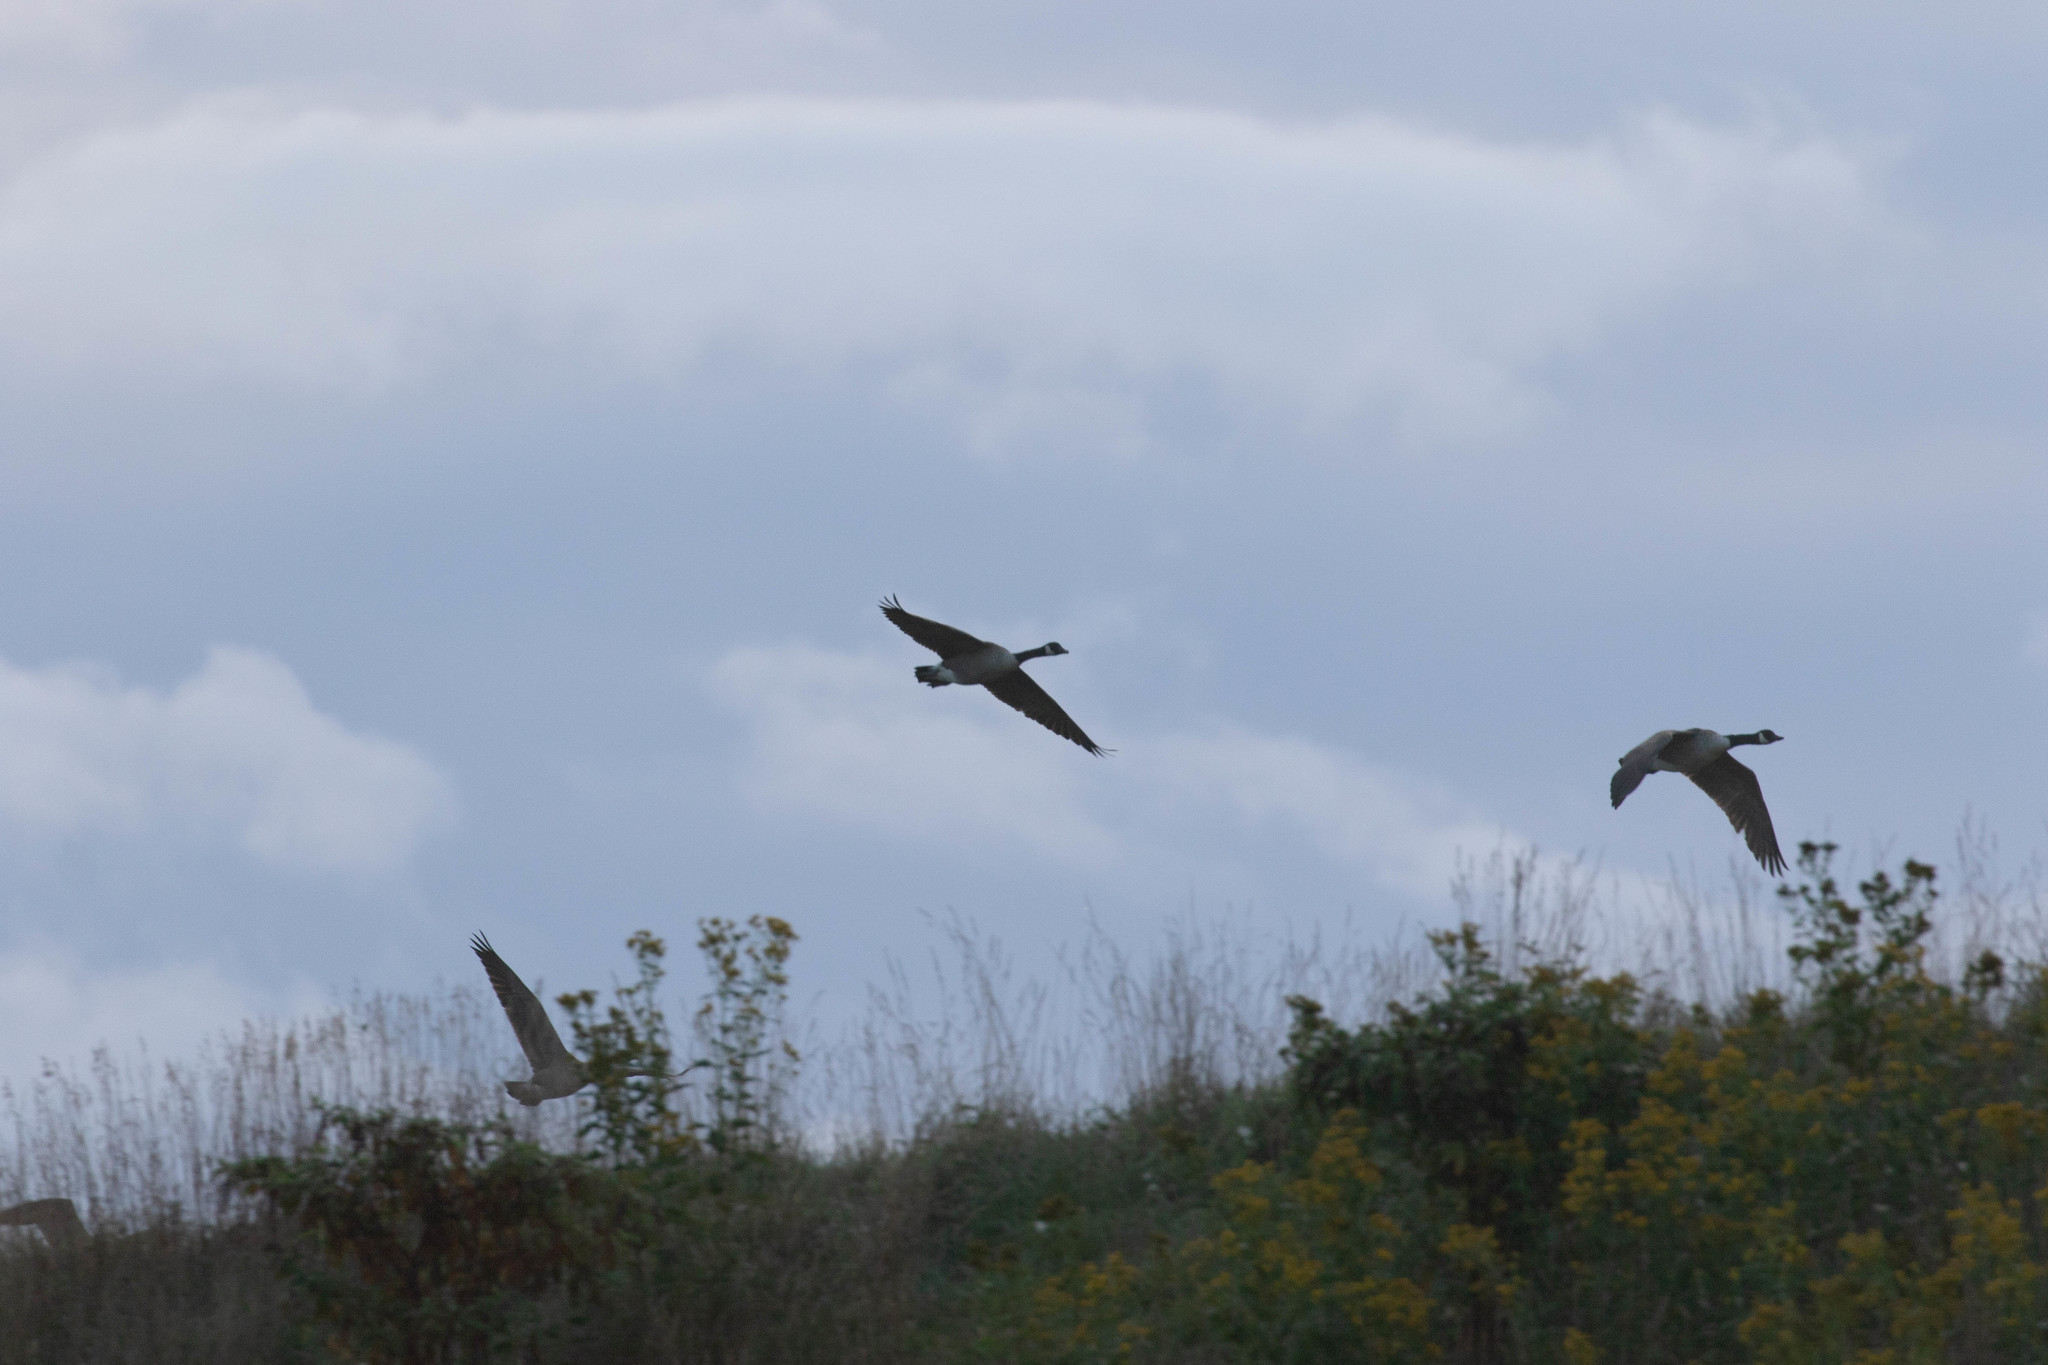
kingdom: Animalia
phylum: Chordata
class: Aves
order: Anseriformes
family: Anatidae
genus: Branta
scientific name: Branta canadensis
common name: Canada goose
